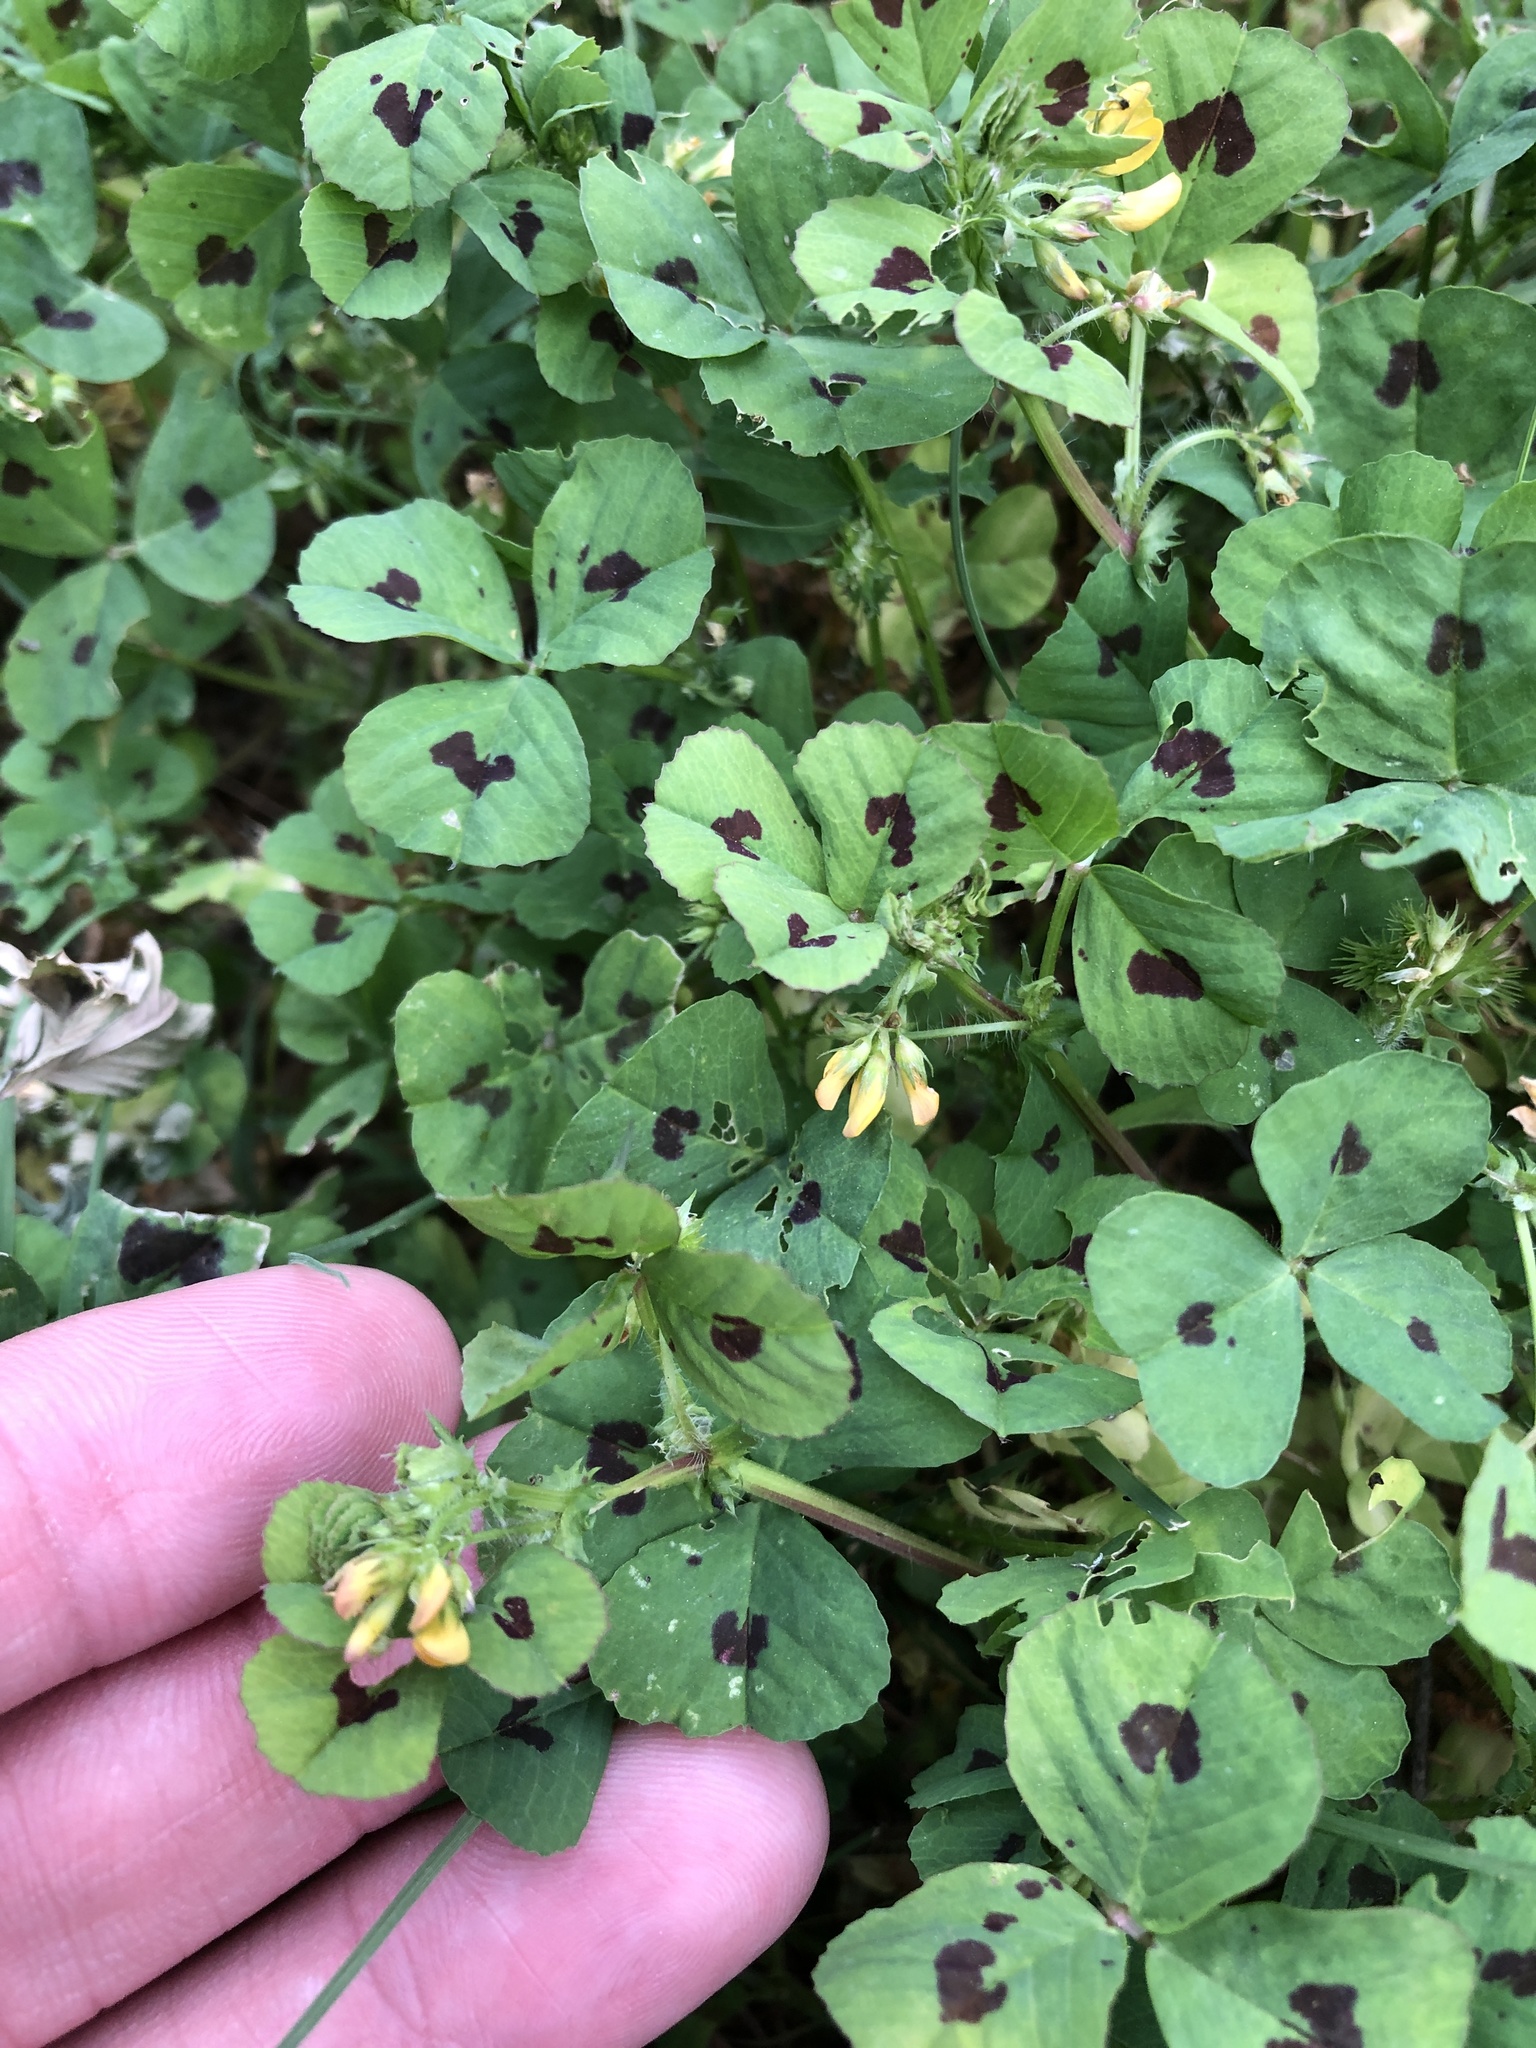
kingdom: Plantae
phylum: Tracheophyta
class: Magnoliopsida
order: Fabales
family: Fabaceae
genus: Medicago
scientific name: Medicago arabica
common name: Spotted medick
